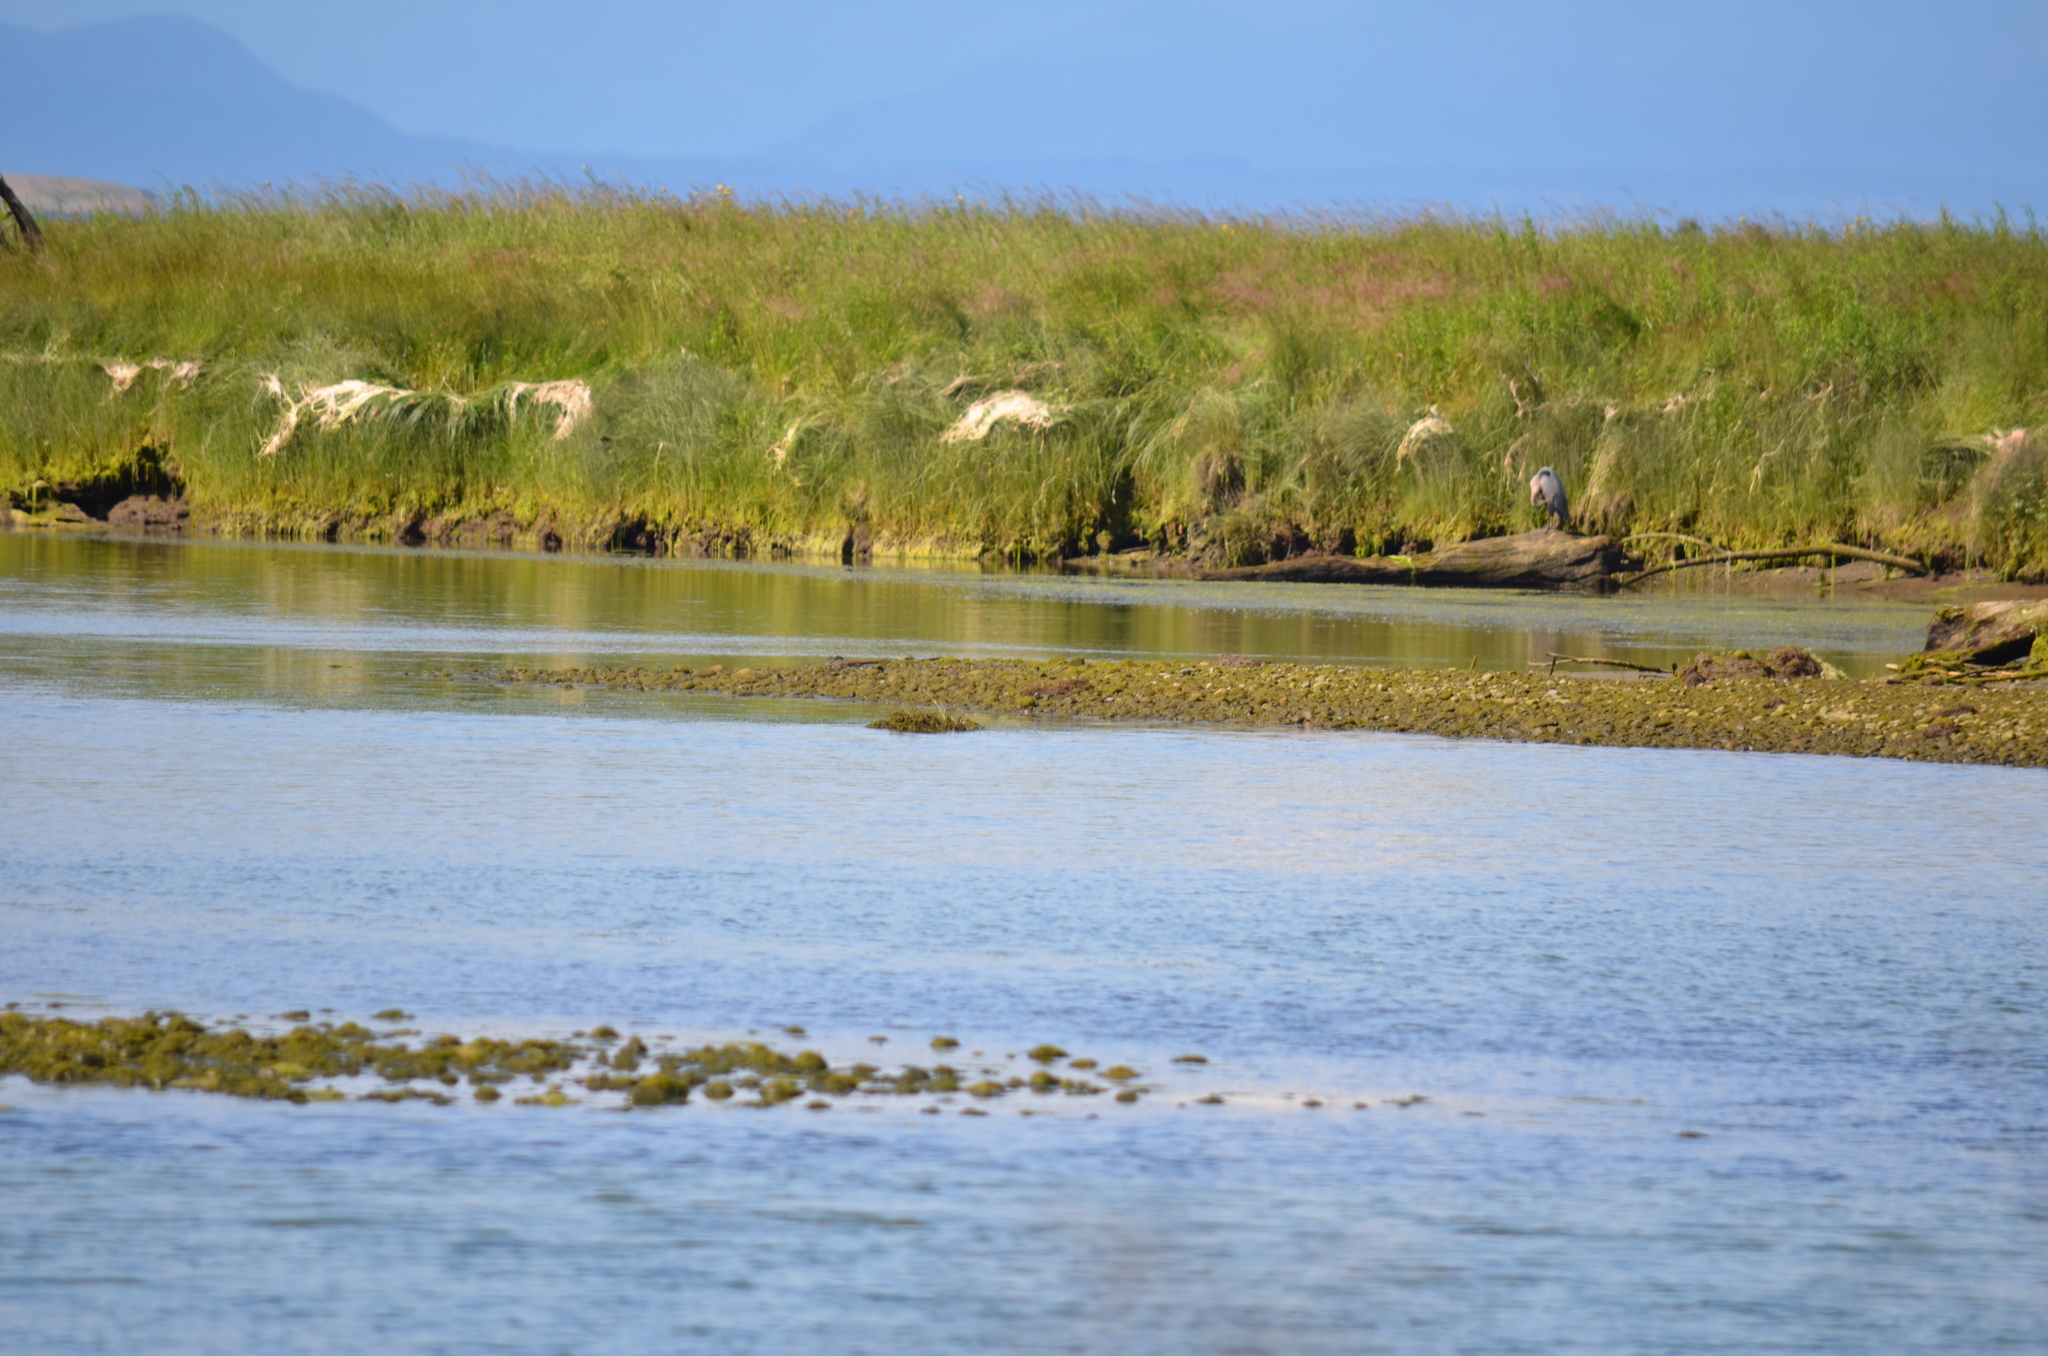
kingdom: Animalia
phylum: Chordata
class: Aves
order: Pelecaniformes
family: Ardeidae
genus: Ardea
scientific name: Ardea herodias
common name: Great blue heron
